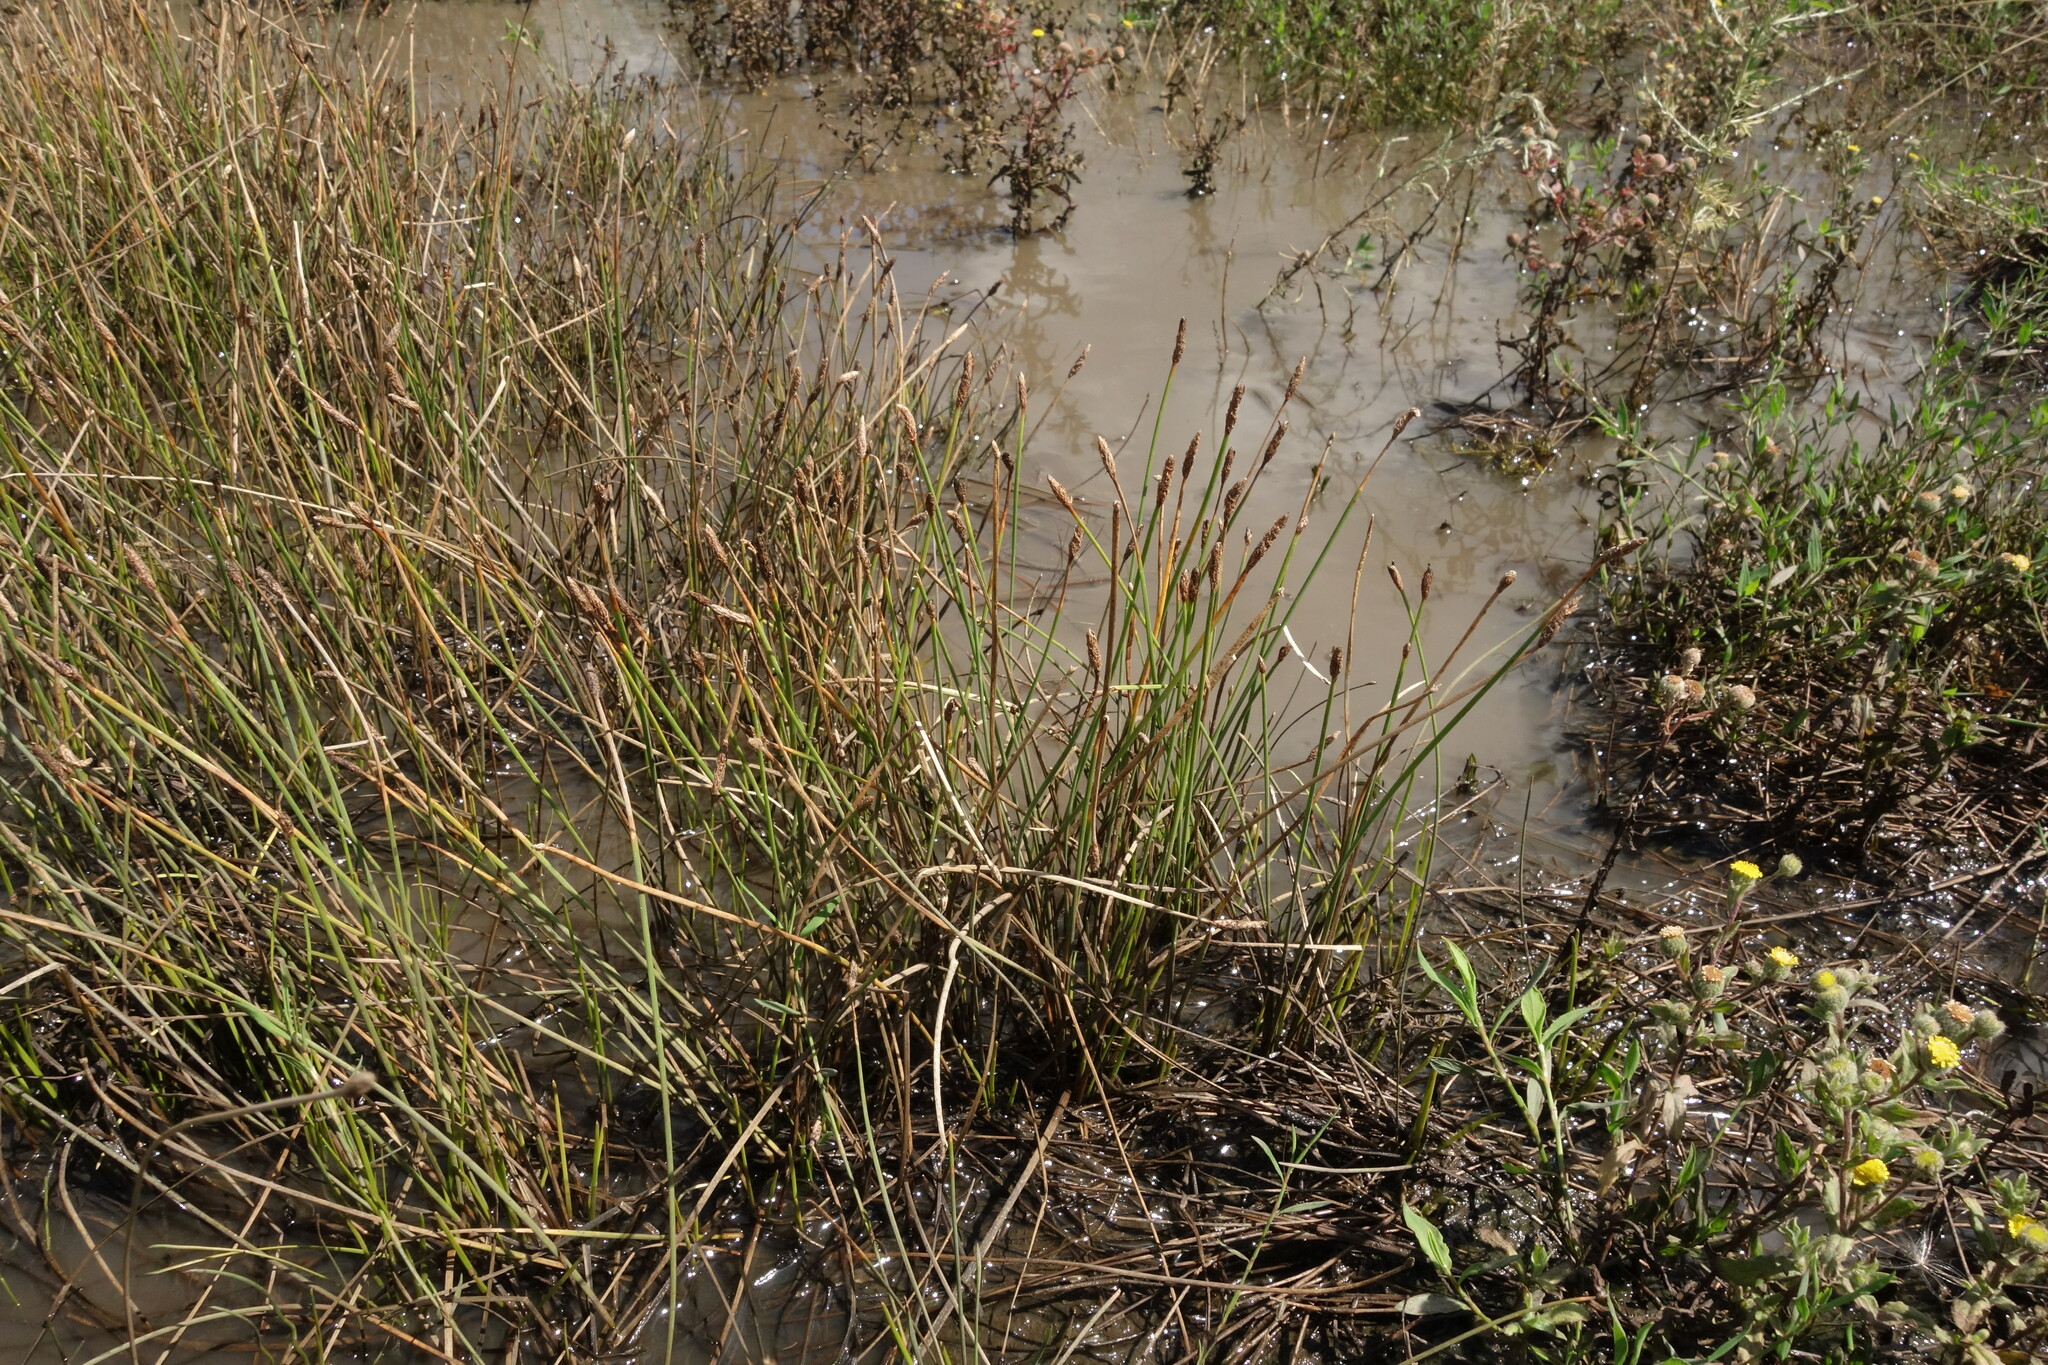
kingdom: Plantae
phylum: Tracheophyta
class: Liliopsida
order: Poales
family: Cyperaceae
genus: Eleocharis
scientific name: Eleocharis palustris
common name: Common spike-rush
